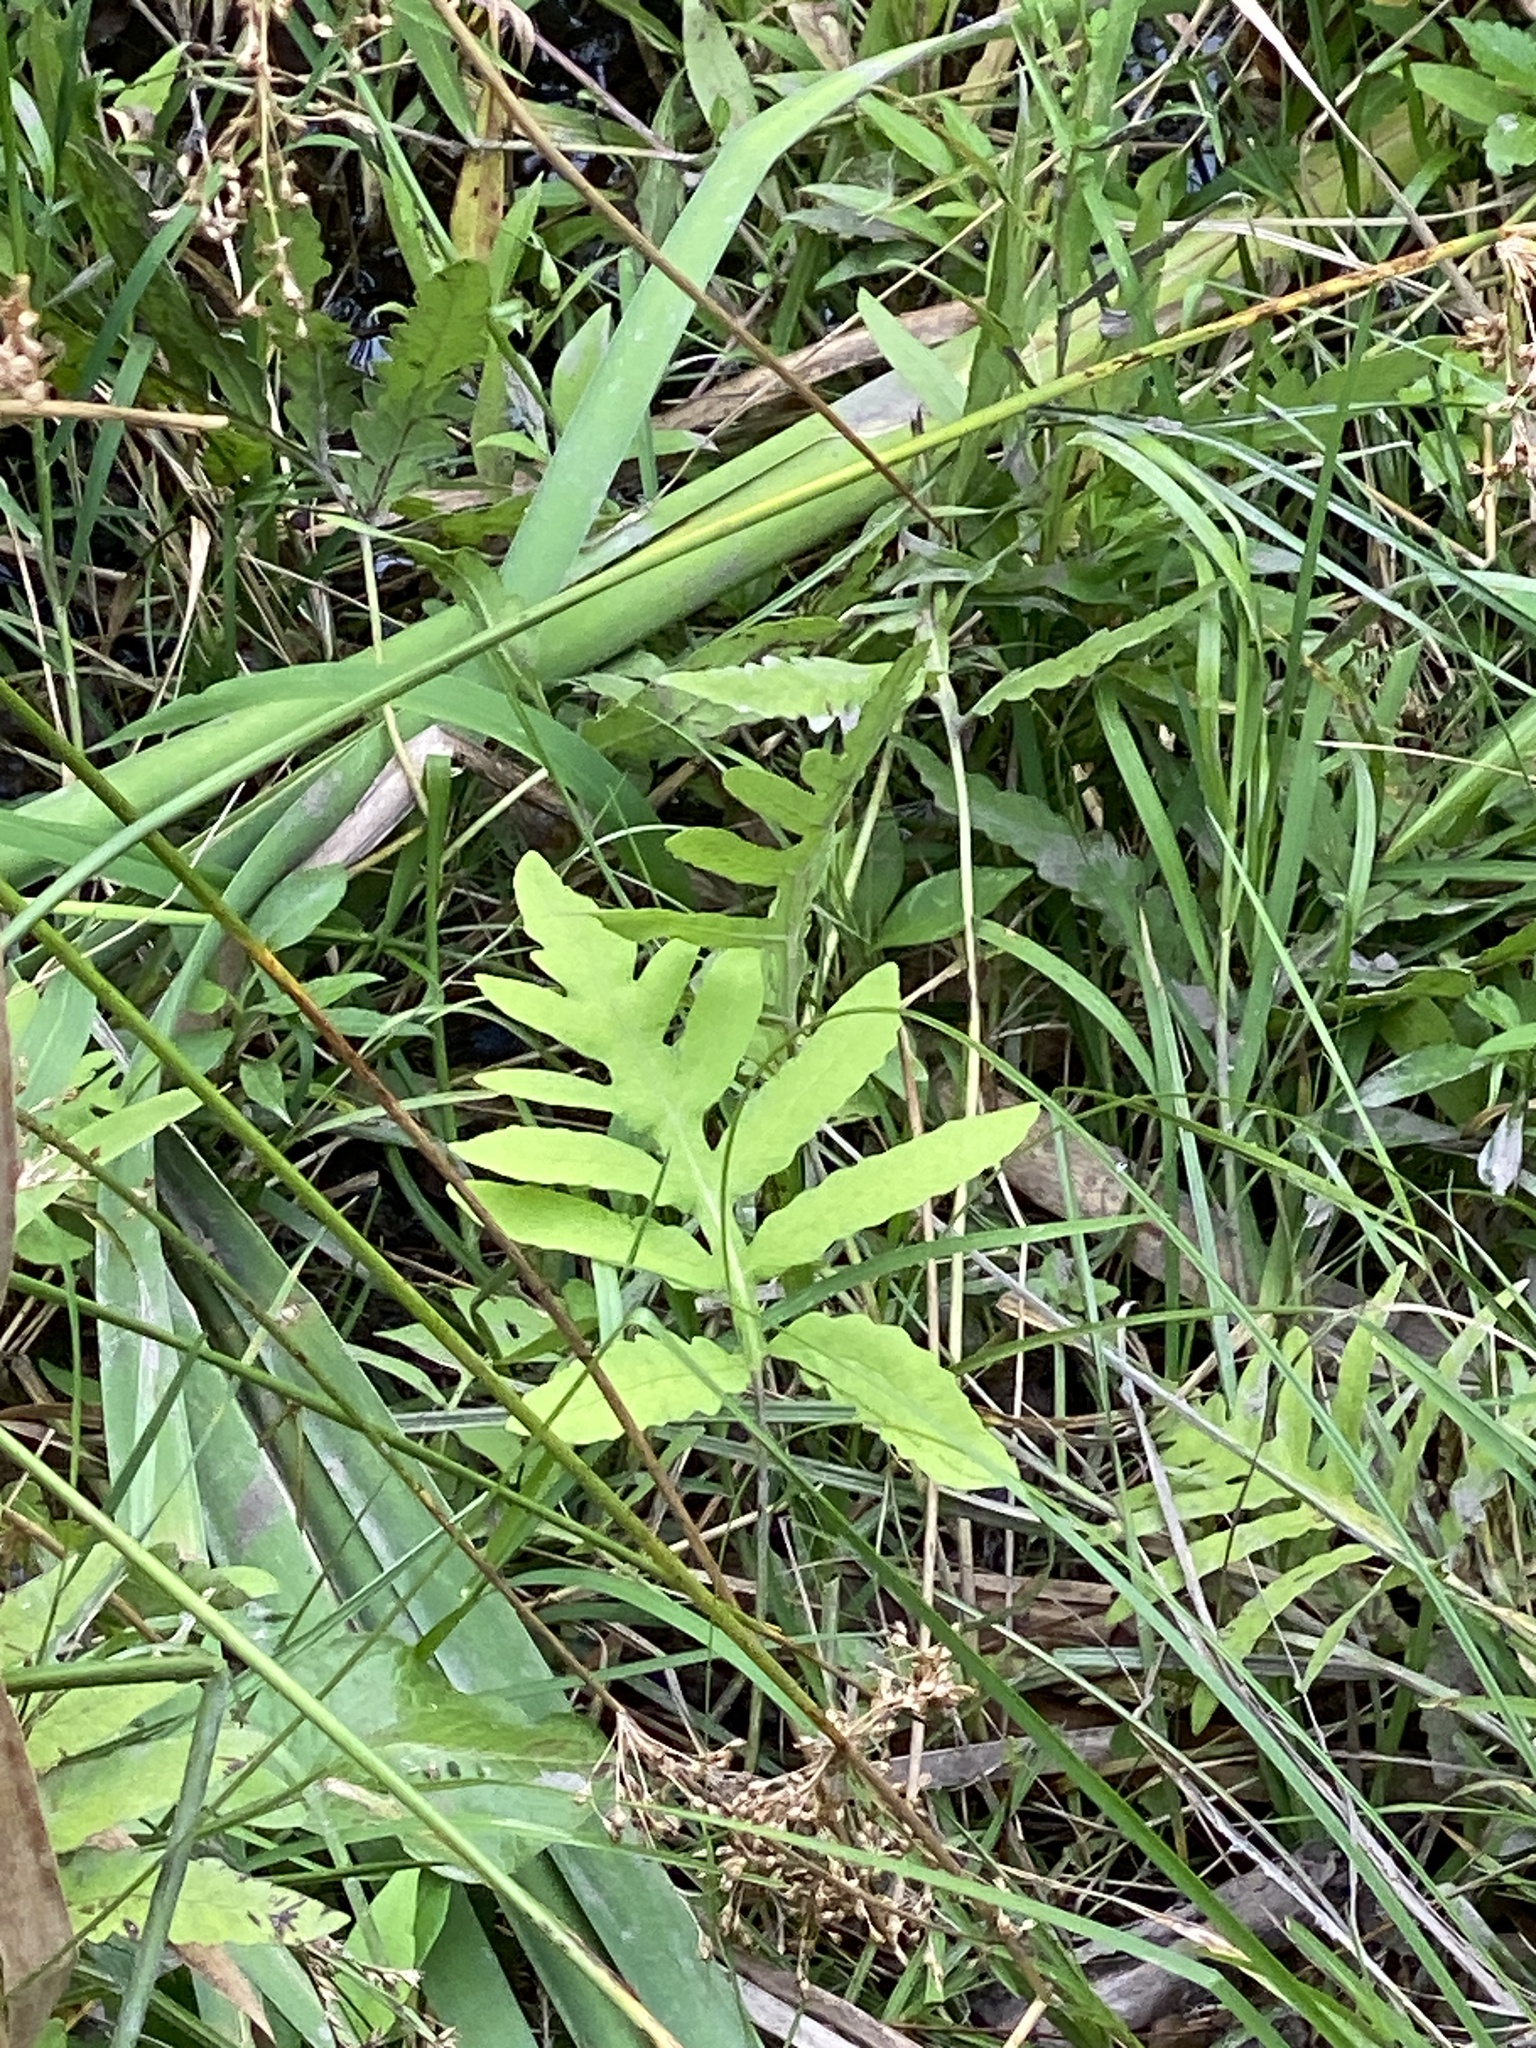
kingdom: Plantae
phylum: Tracheophyta
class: Polypodiopsida
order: Polypodiales
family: Onocleaceae
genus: Onoclea
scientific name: Onoclea sensibilis
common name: Sensitive fern
